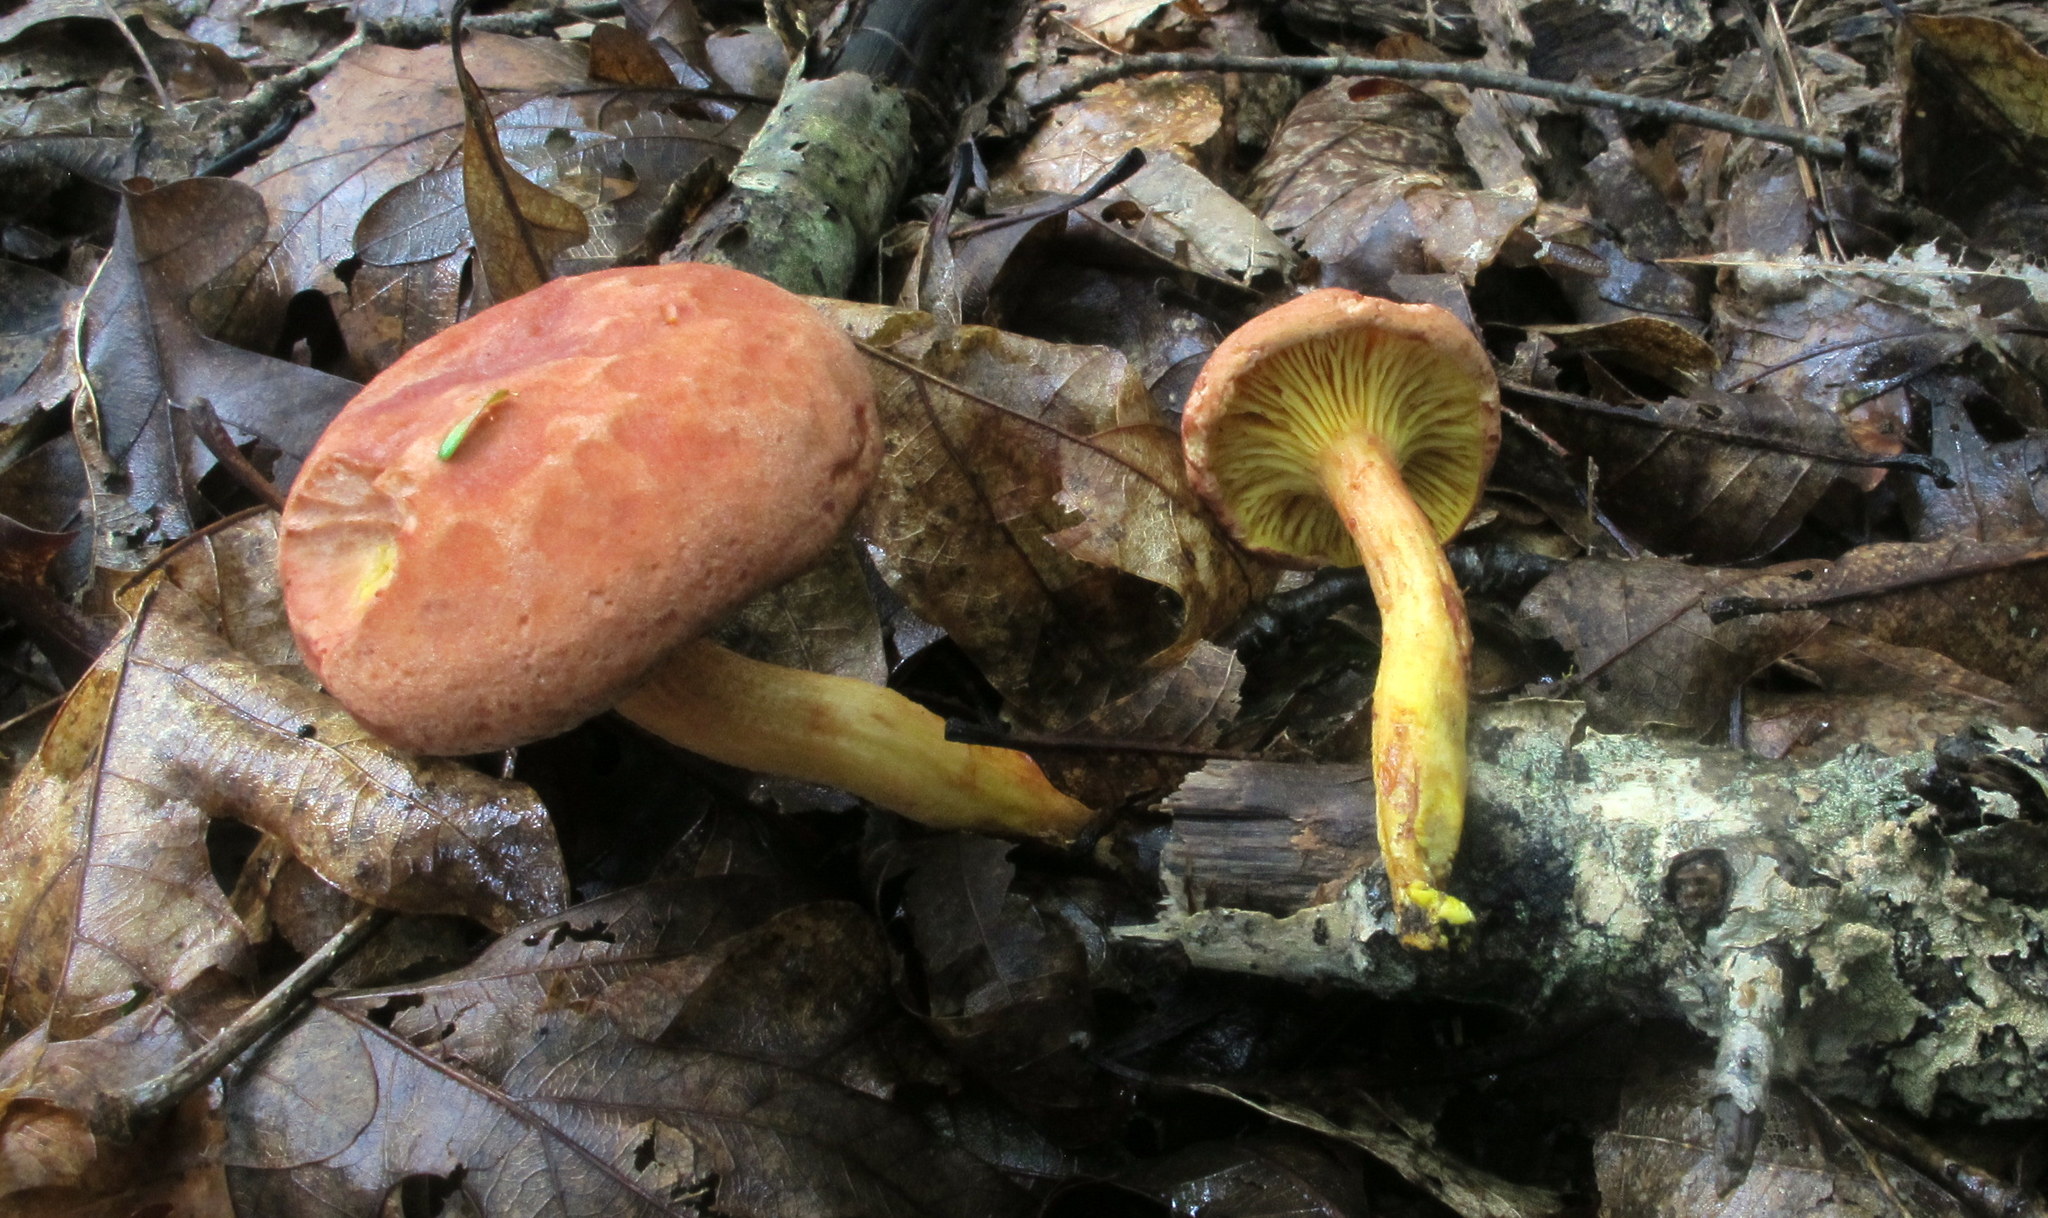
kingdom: Fungi
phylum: Basidiomycota
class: Agaricomycetes
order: Boletales
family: Boletaceae
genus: Phylloporus
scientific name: Phylloporus rhodoxanthus
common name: Golden gilled bolete
